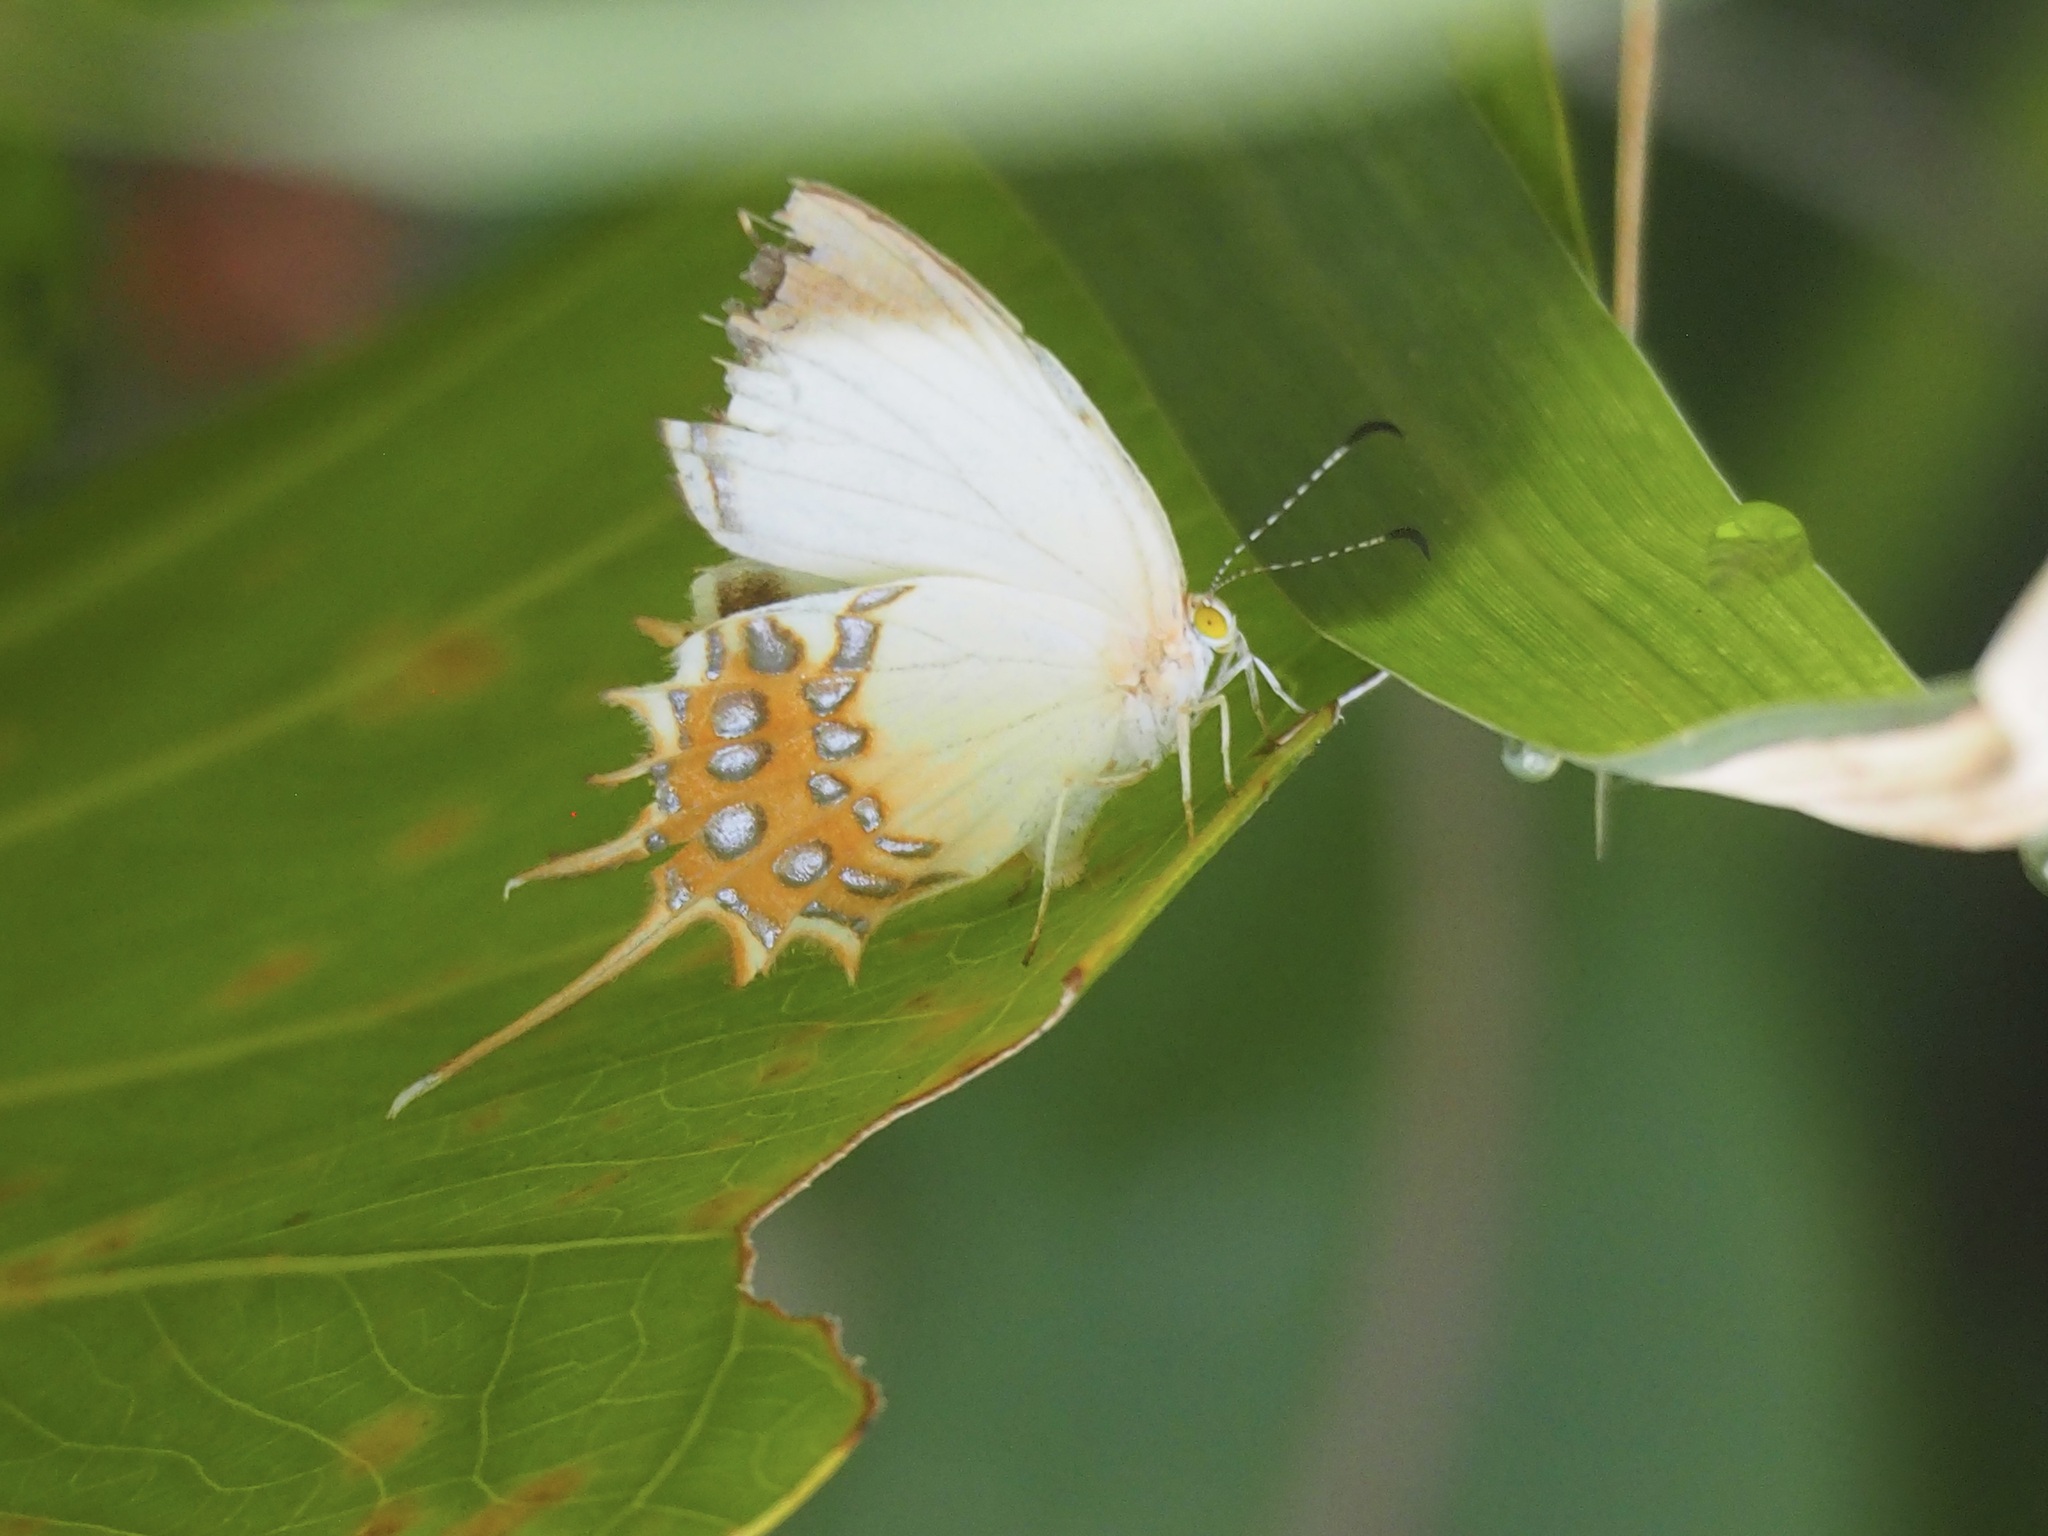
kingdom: Animalia
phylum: Arthropoda
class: Insecta
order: Lepidoptera
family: Riodinidae
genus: Helicopis
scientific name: Helicopis cupido
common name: Spangled cupid
